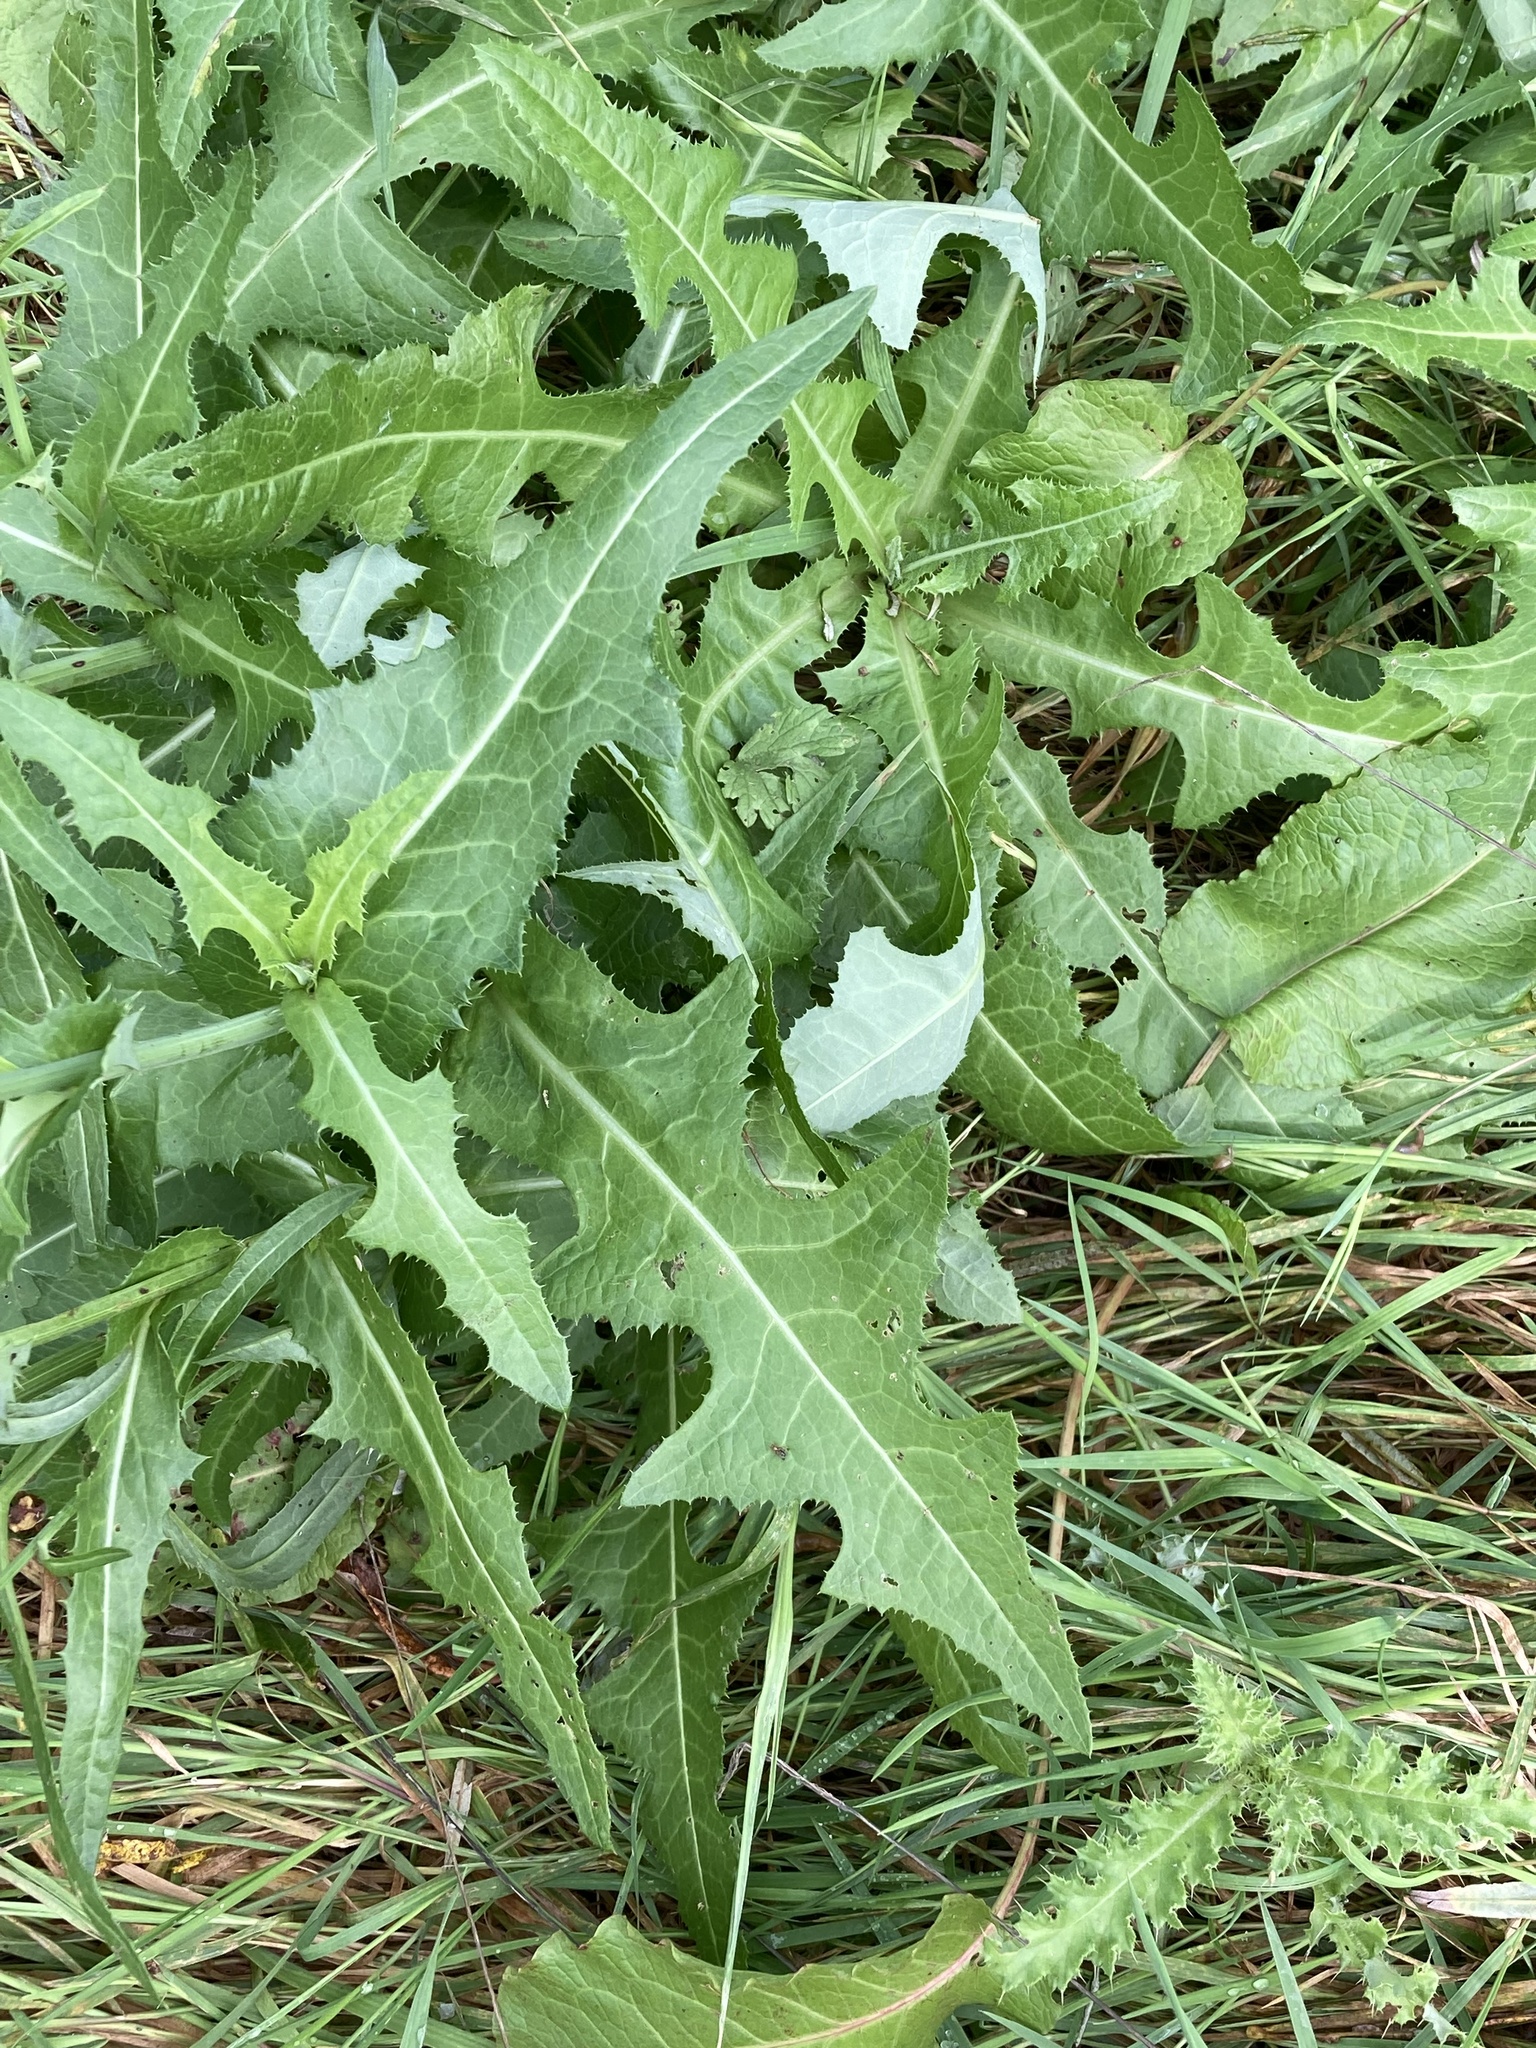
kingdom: Plantae
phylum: Tracheophyta
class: Magnoliopsida
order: Asterales
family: Asteraceae
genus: Sonchus
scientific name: Sonchus arvensis
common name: Perennial sow-thistle
